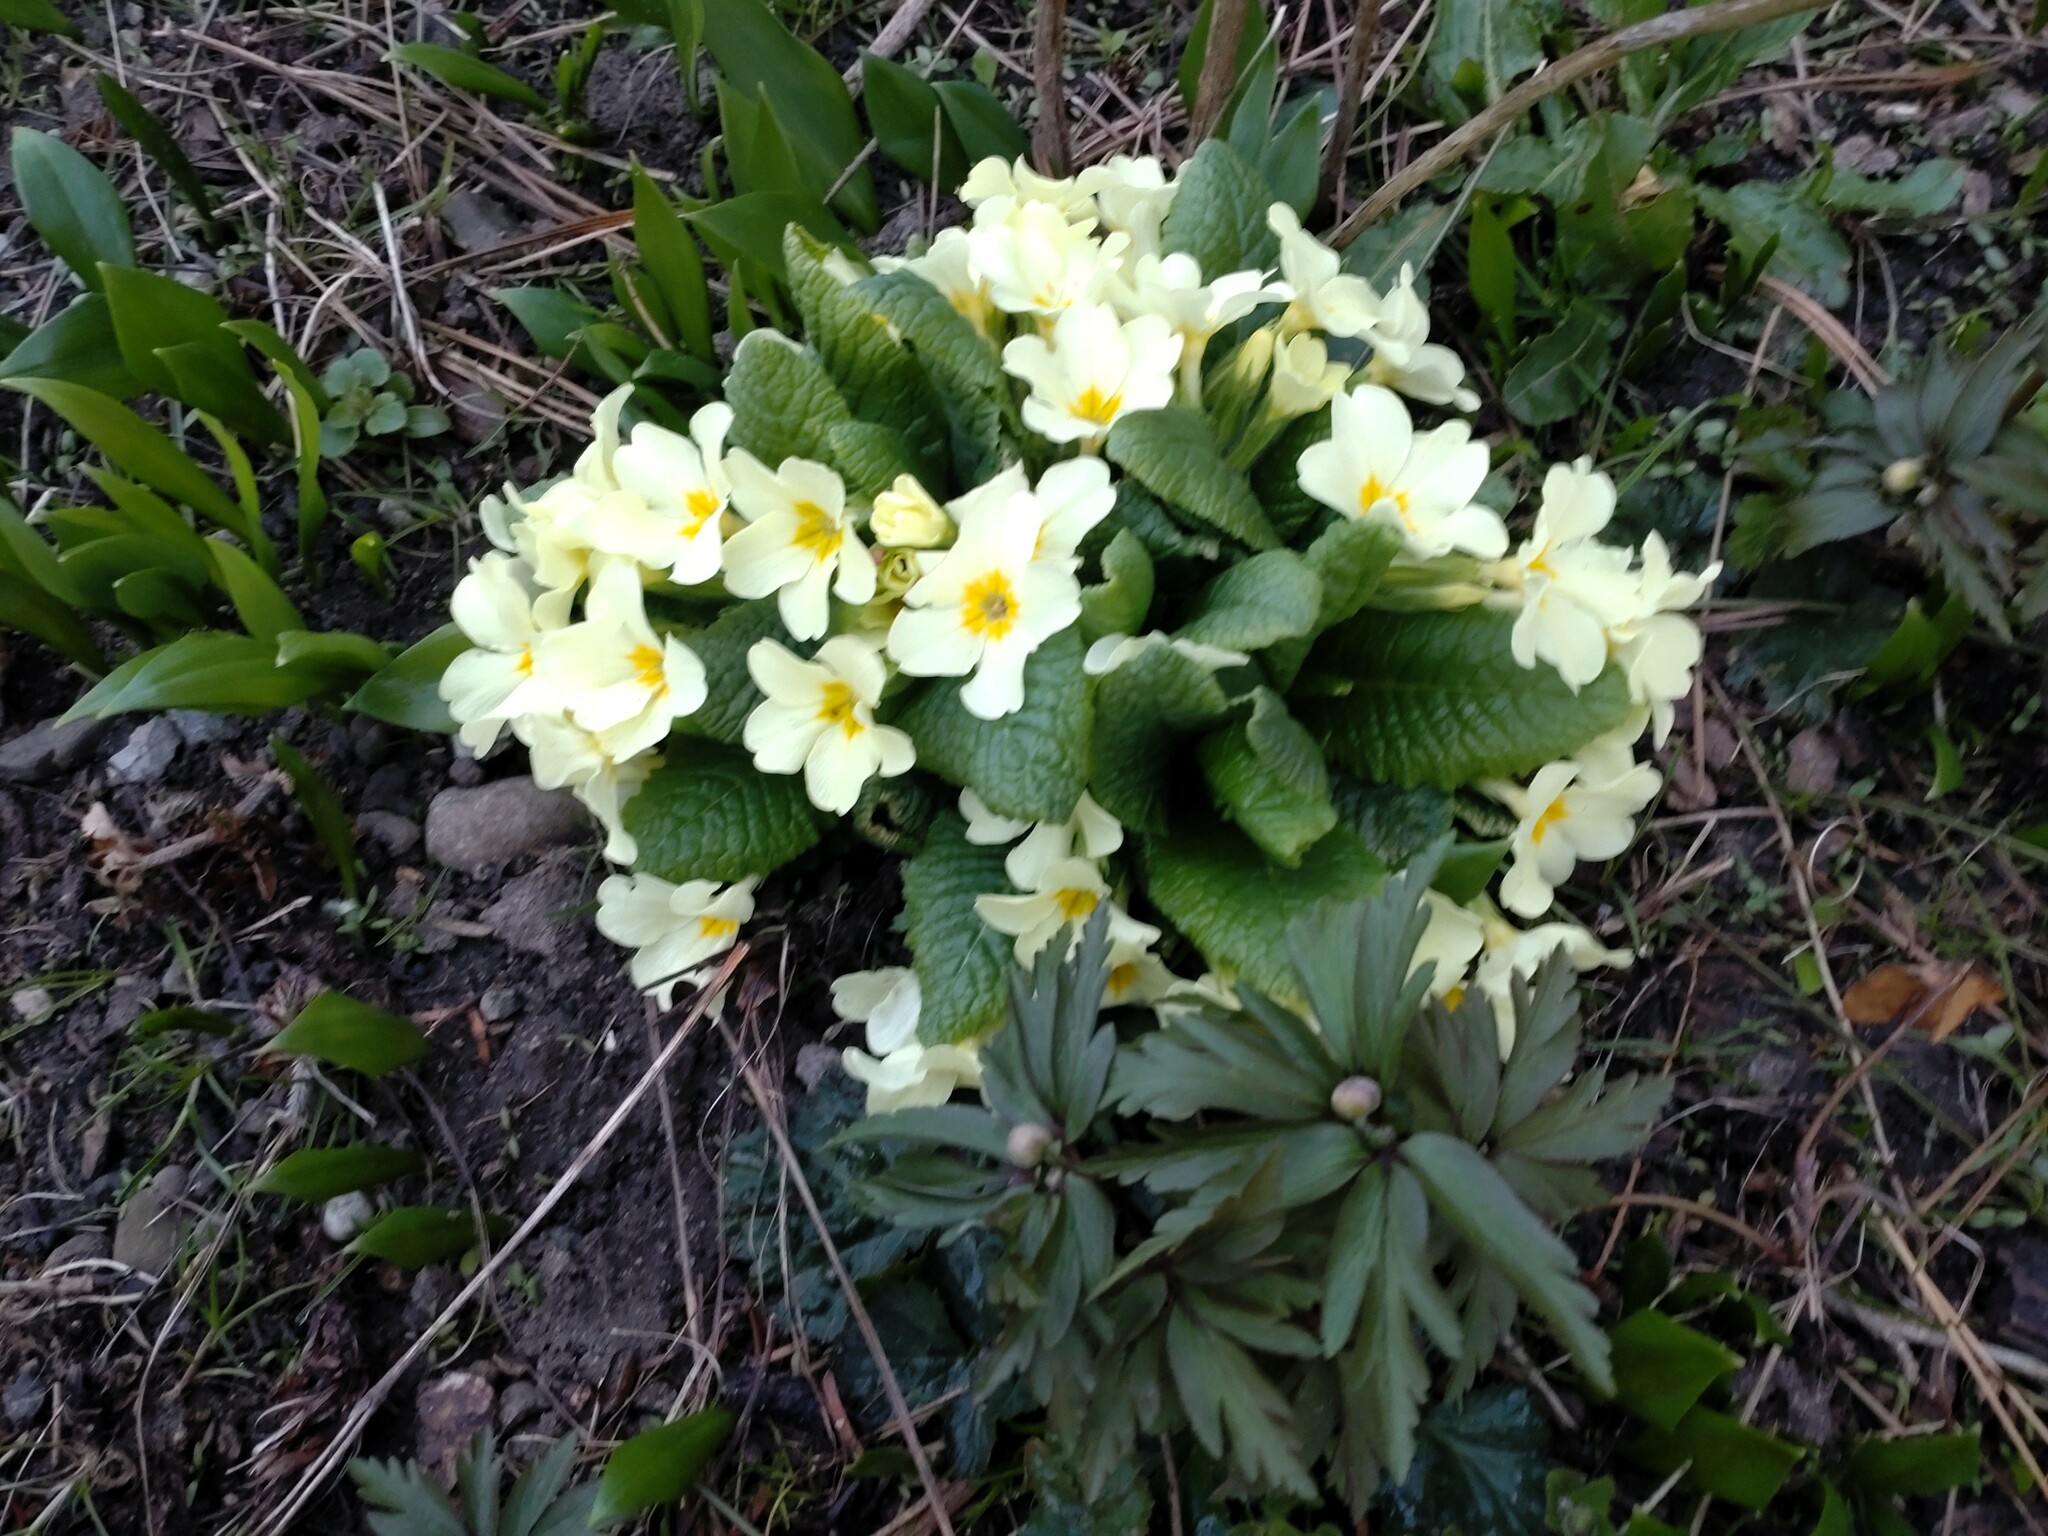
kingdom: Plantae
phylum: Tracheophyta
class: Magnoliopsida
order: Ericales
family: Primulaceae
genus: Primula
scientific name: Primula vulgaris
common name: Primrose
